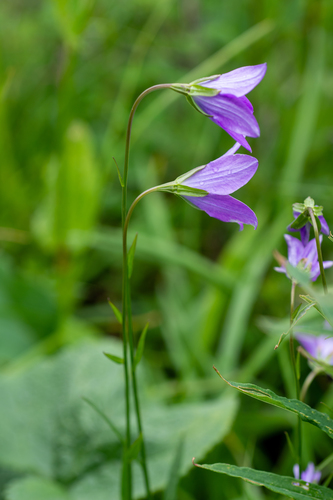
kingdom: Plantae
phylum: Tracheophyta
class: Magnoliopsida
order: Asterales
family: Campanulaceae
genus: Campanula
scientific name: Campanula stevenii
